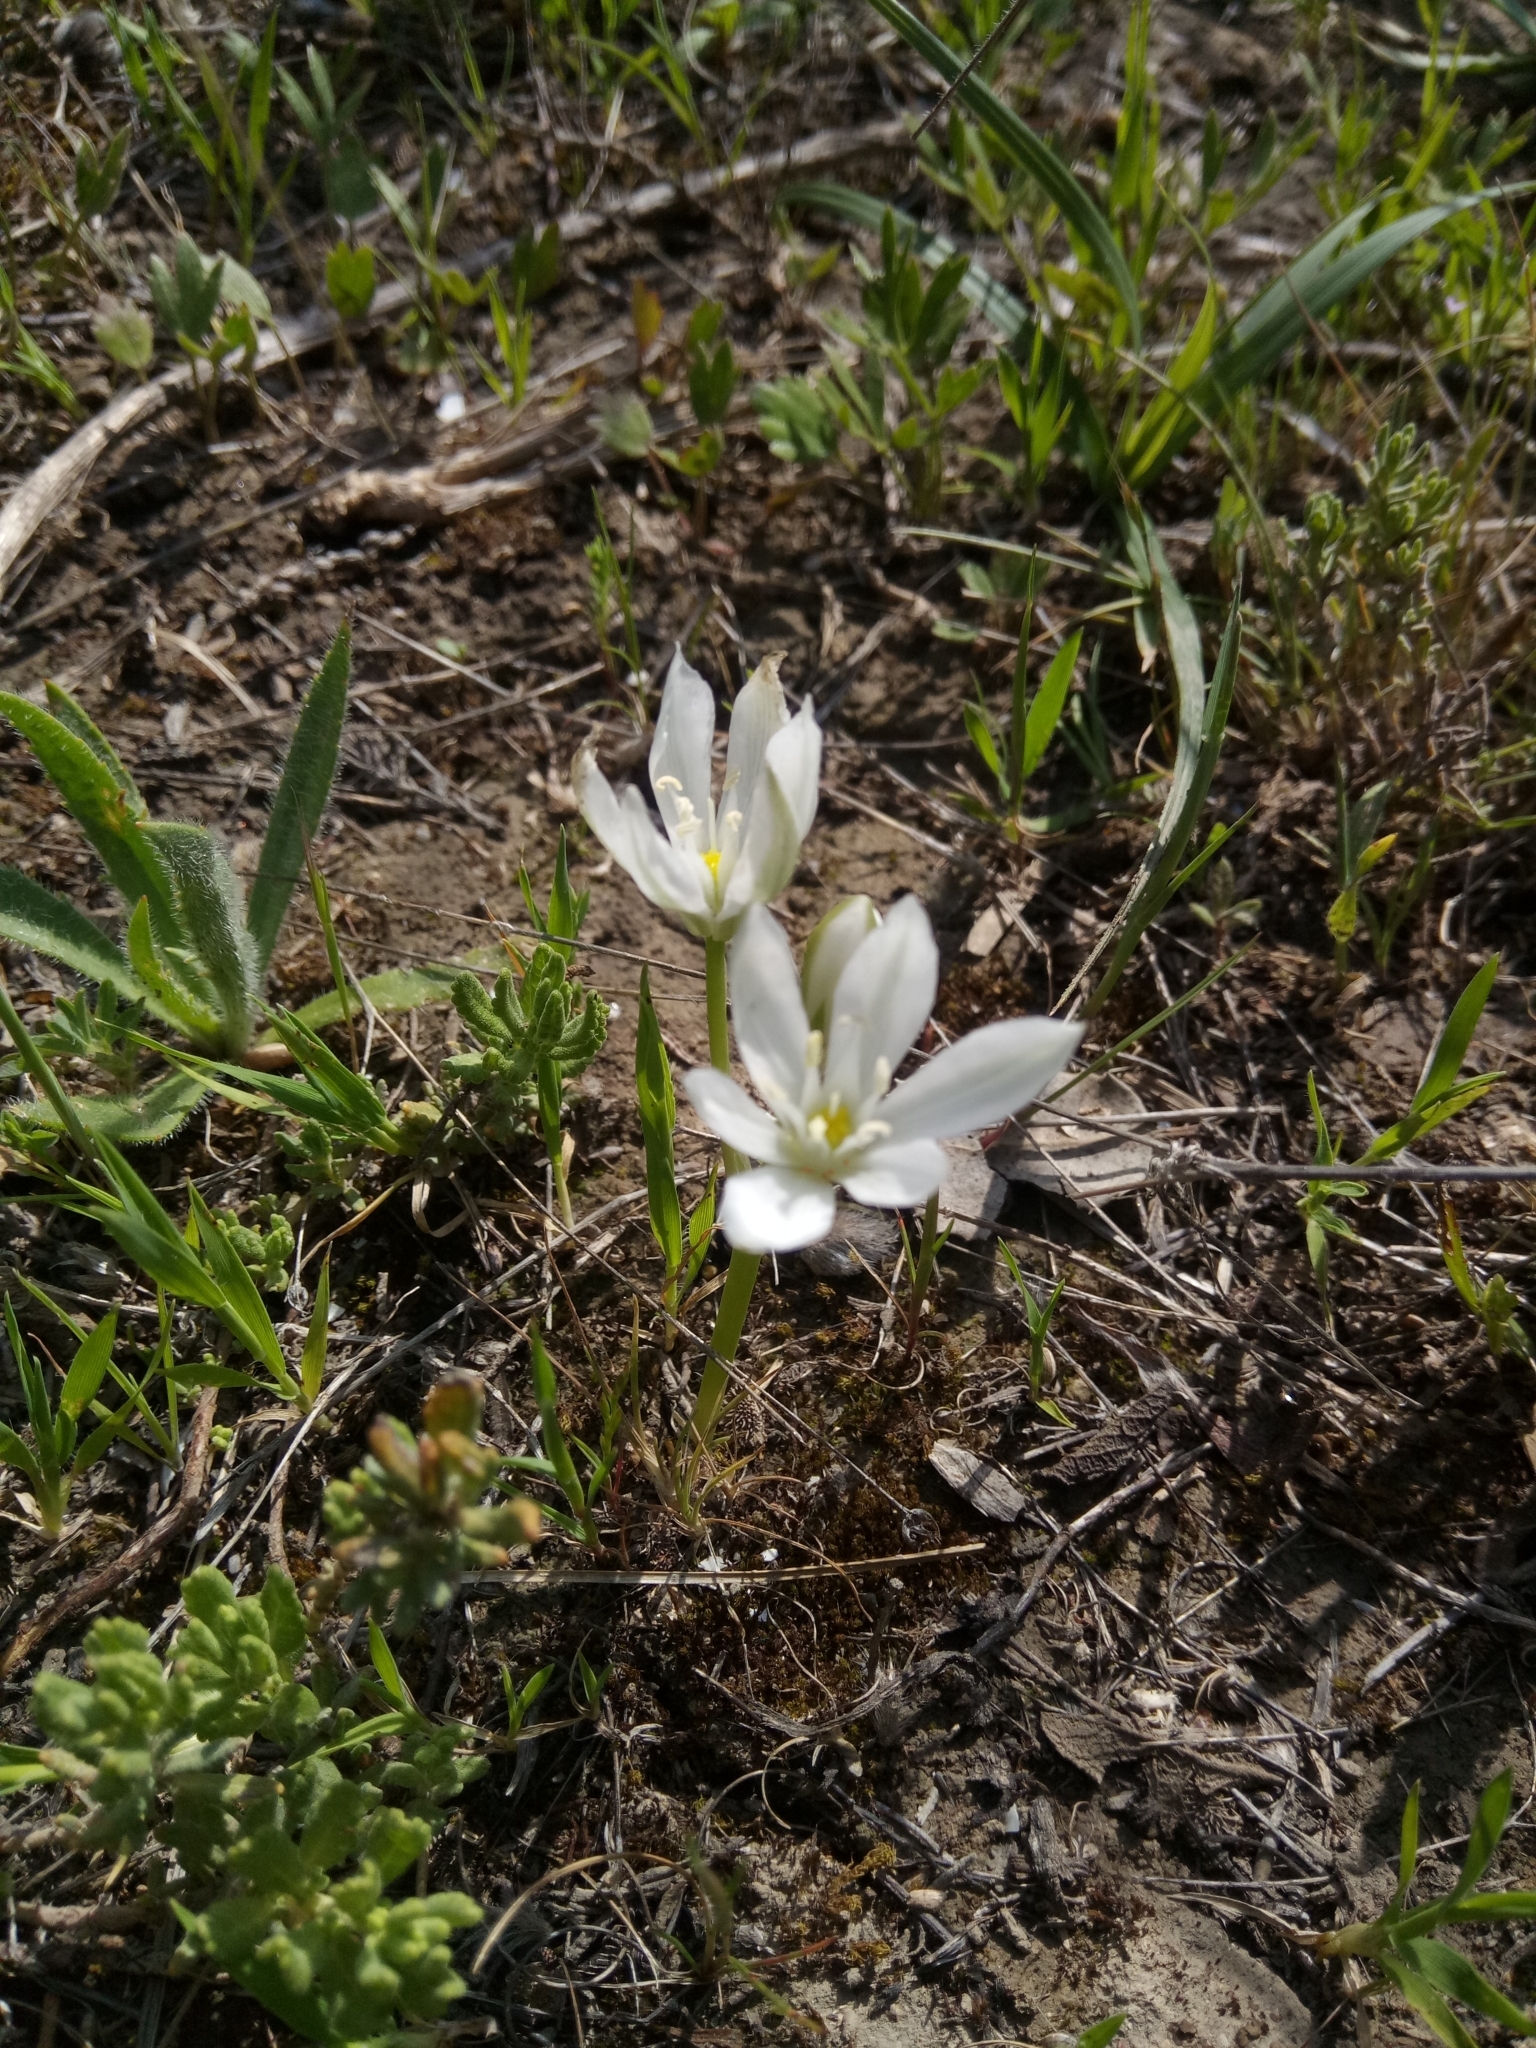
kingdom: Plantae
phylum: Tracheophyta
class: Liliopsida
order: Asparagales
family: Asparagaceae
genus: Ornithogalum
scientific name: Ornithogalum baeticum
